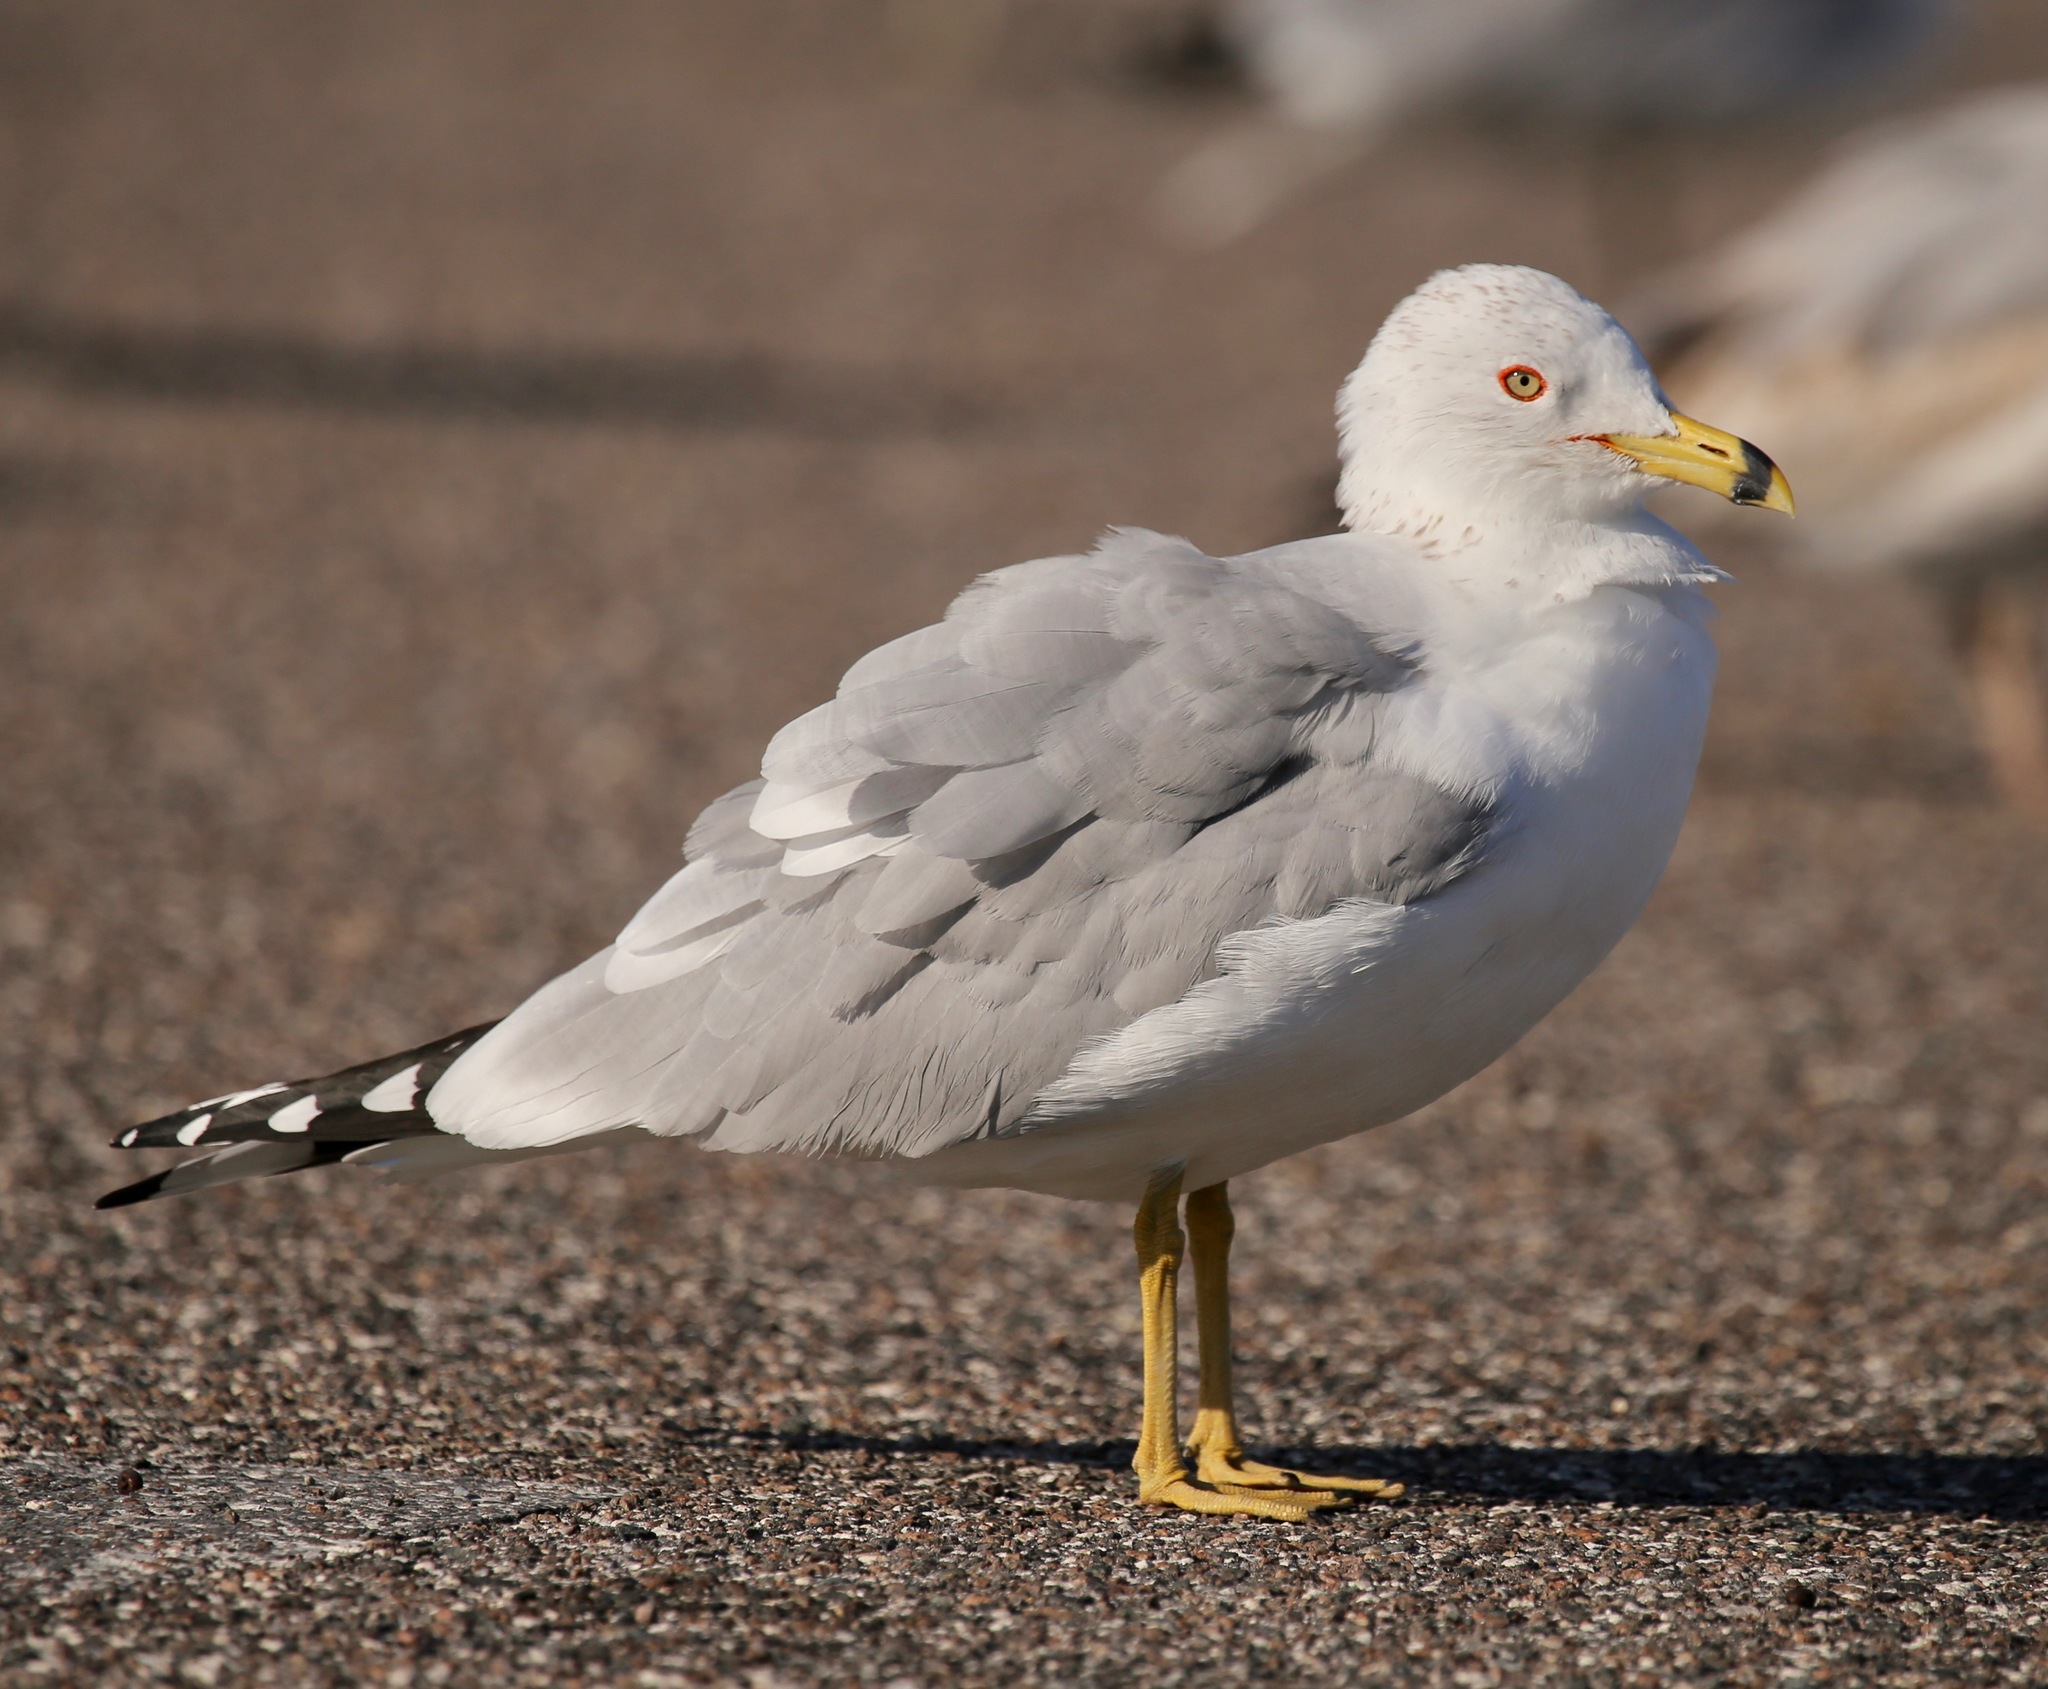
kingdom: Animalia
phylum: Chordata
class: Aves
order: Charadriiformes
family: Laridae
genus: Larus
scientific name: Larus delawarensis
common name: Ring-billed gull
